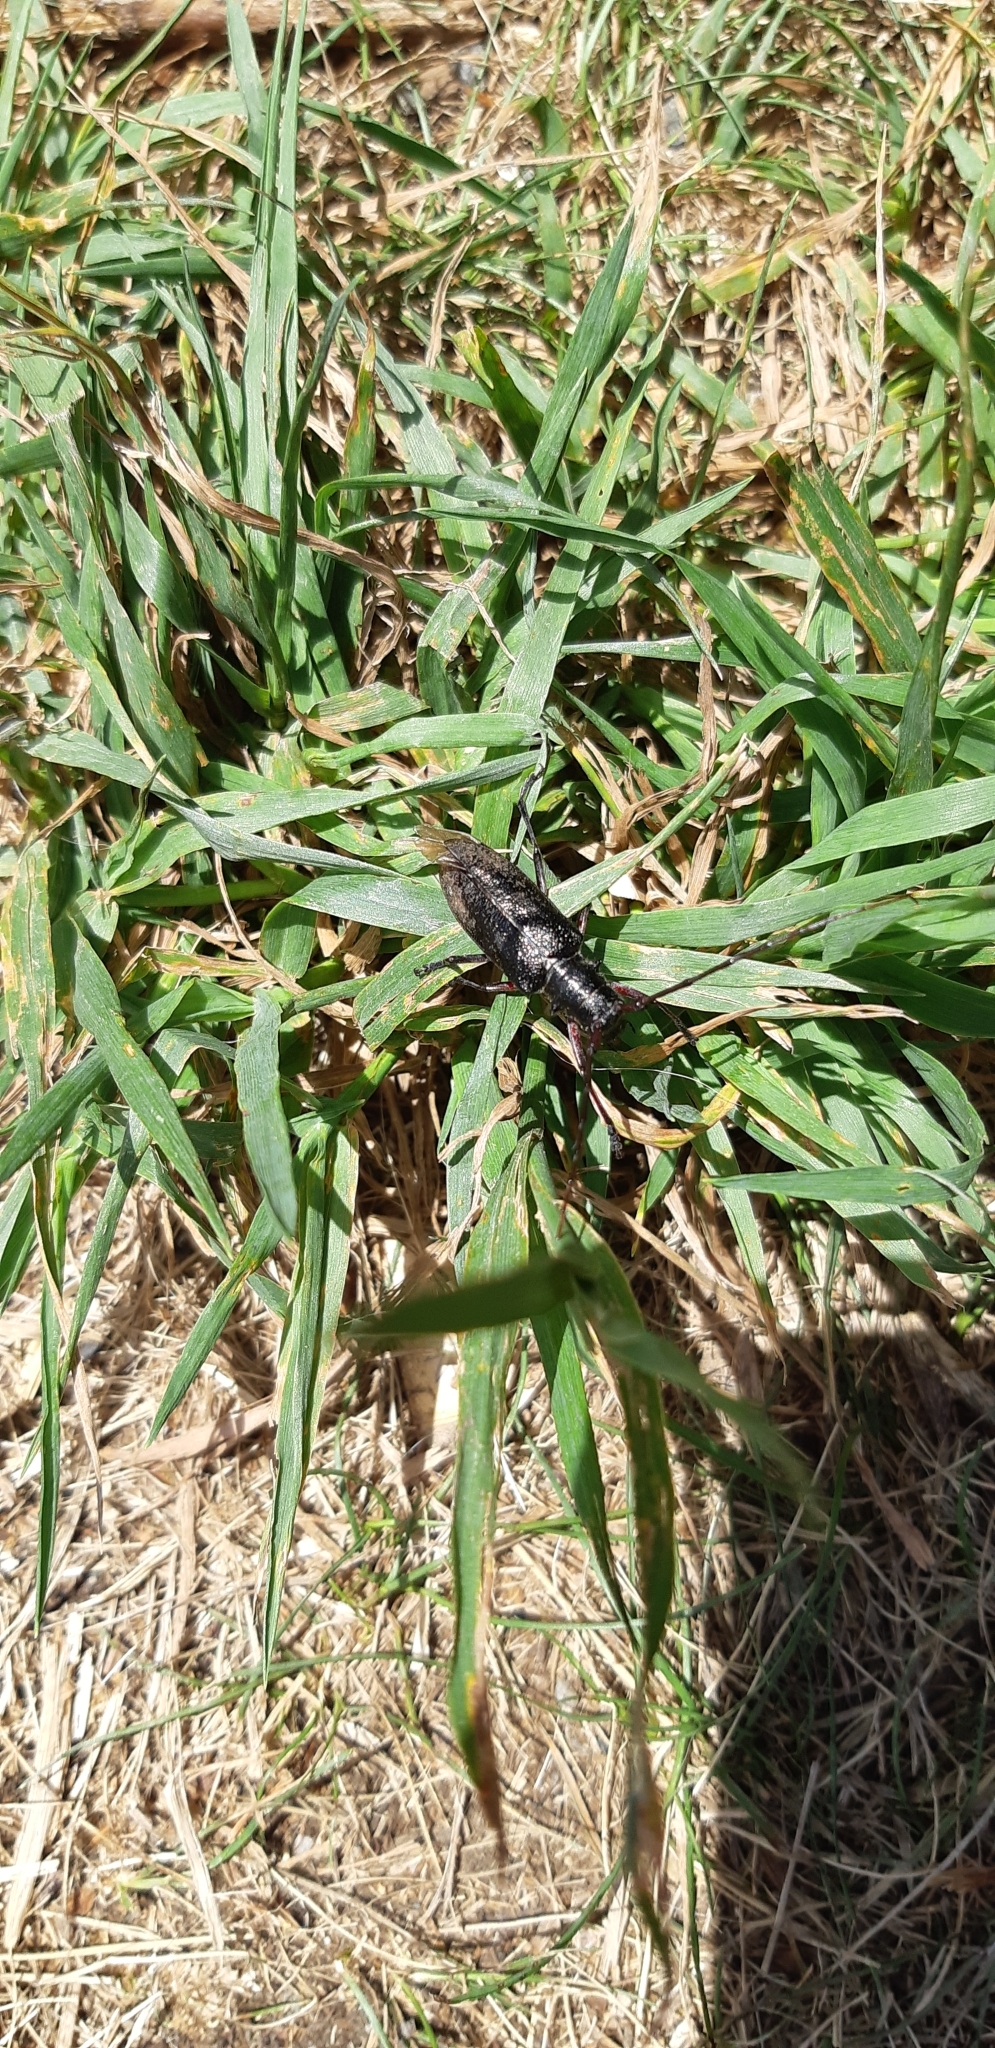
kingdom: Animalia
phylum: Arthropoda
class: Insecta
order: Coleoptera
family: Cerambycidae
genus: Monochamus
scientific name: Monochamus scutellatus
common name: White-spotted sawyer beetle
